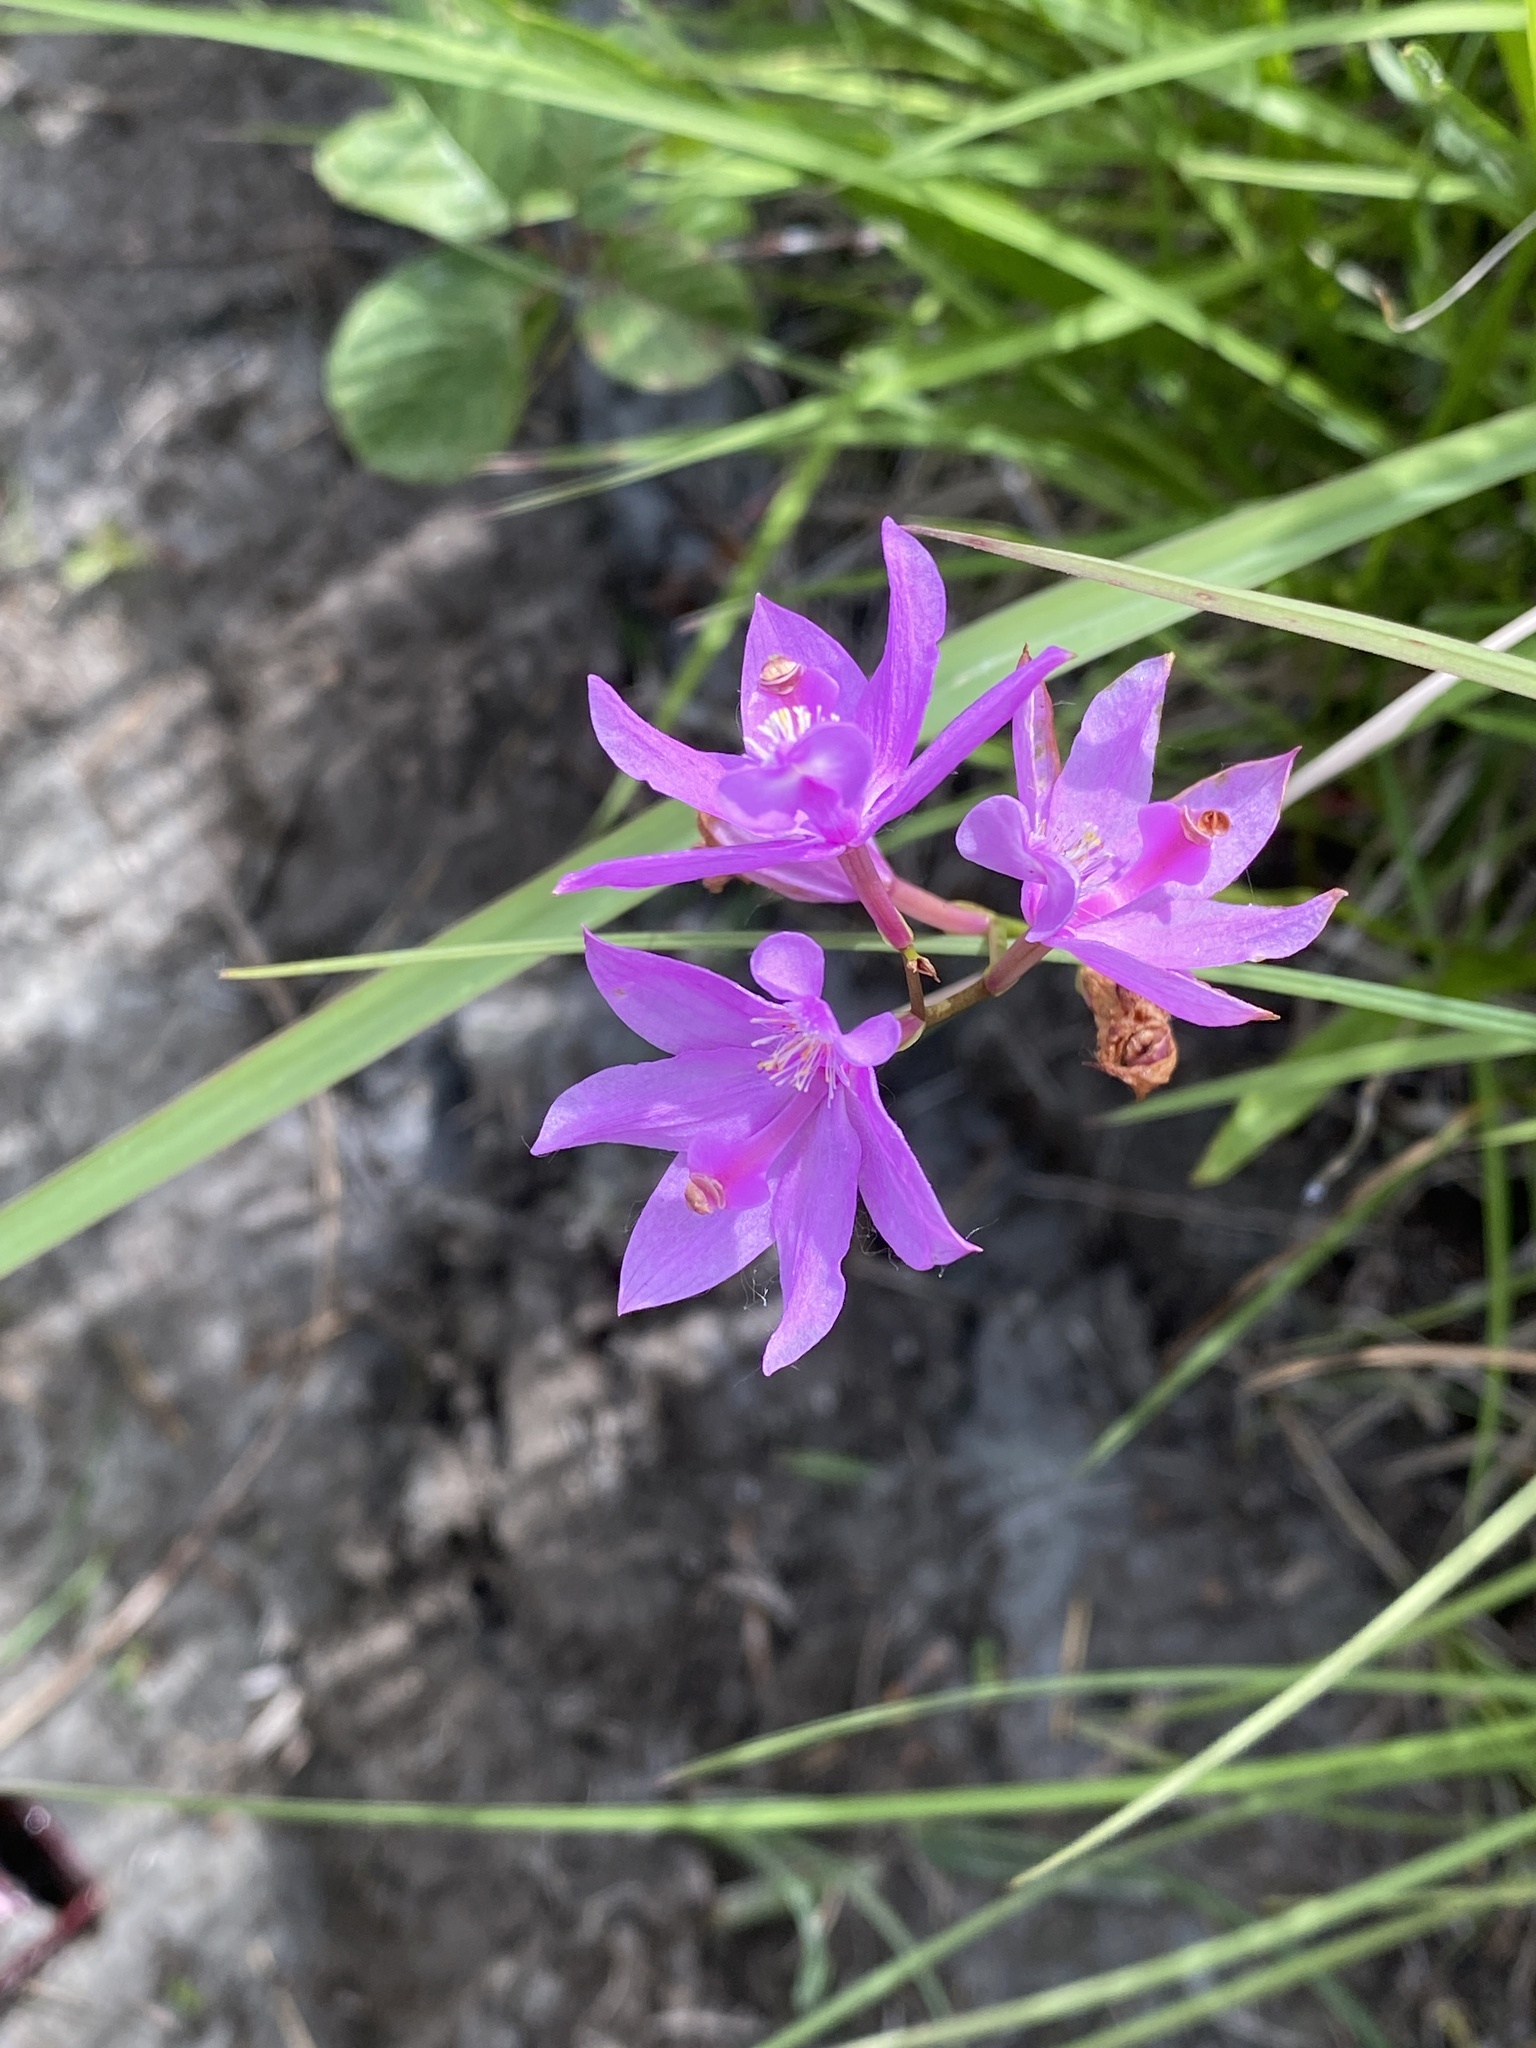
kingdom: Plantae
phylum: Tracheophyta
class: Liliopsida
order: Asparagales
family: Orchidaceae
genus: Calopogon
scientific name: Calopogon tuberosus
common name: Grass-pink
